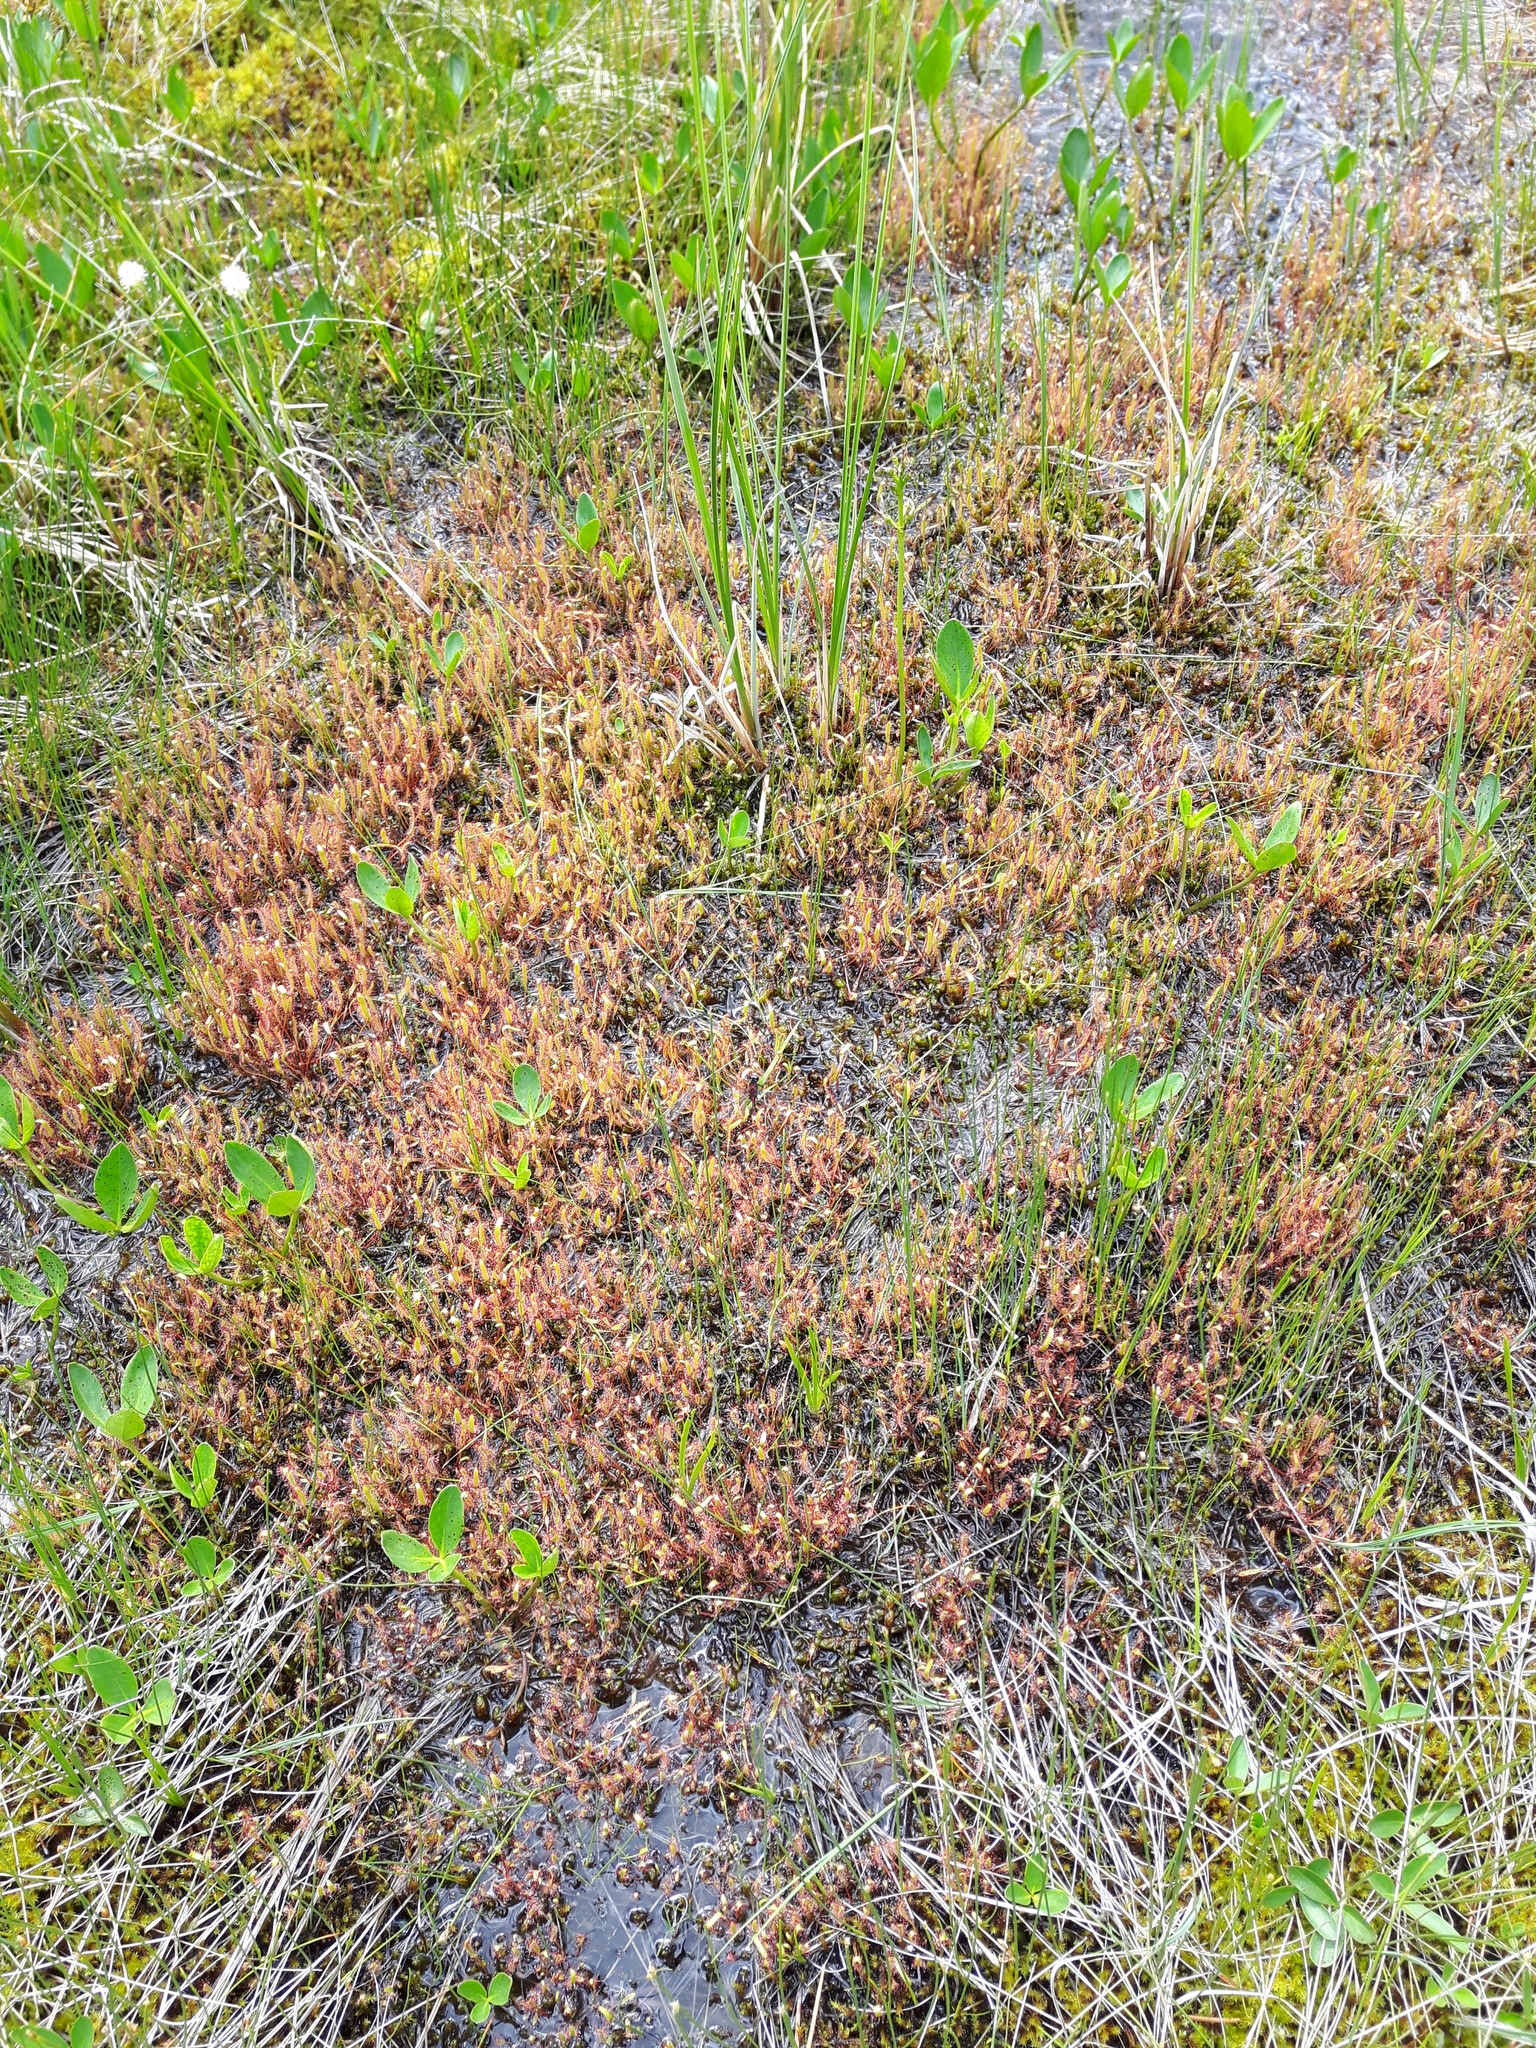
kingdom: Plantae
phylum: Tracheophyta
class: Magnoliopsida
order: Caryophyllales
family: Droseraceae
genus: Drosera
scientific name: Drosera linearis
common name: Linear-leaved sundew
